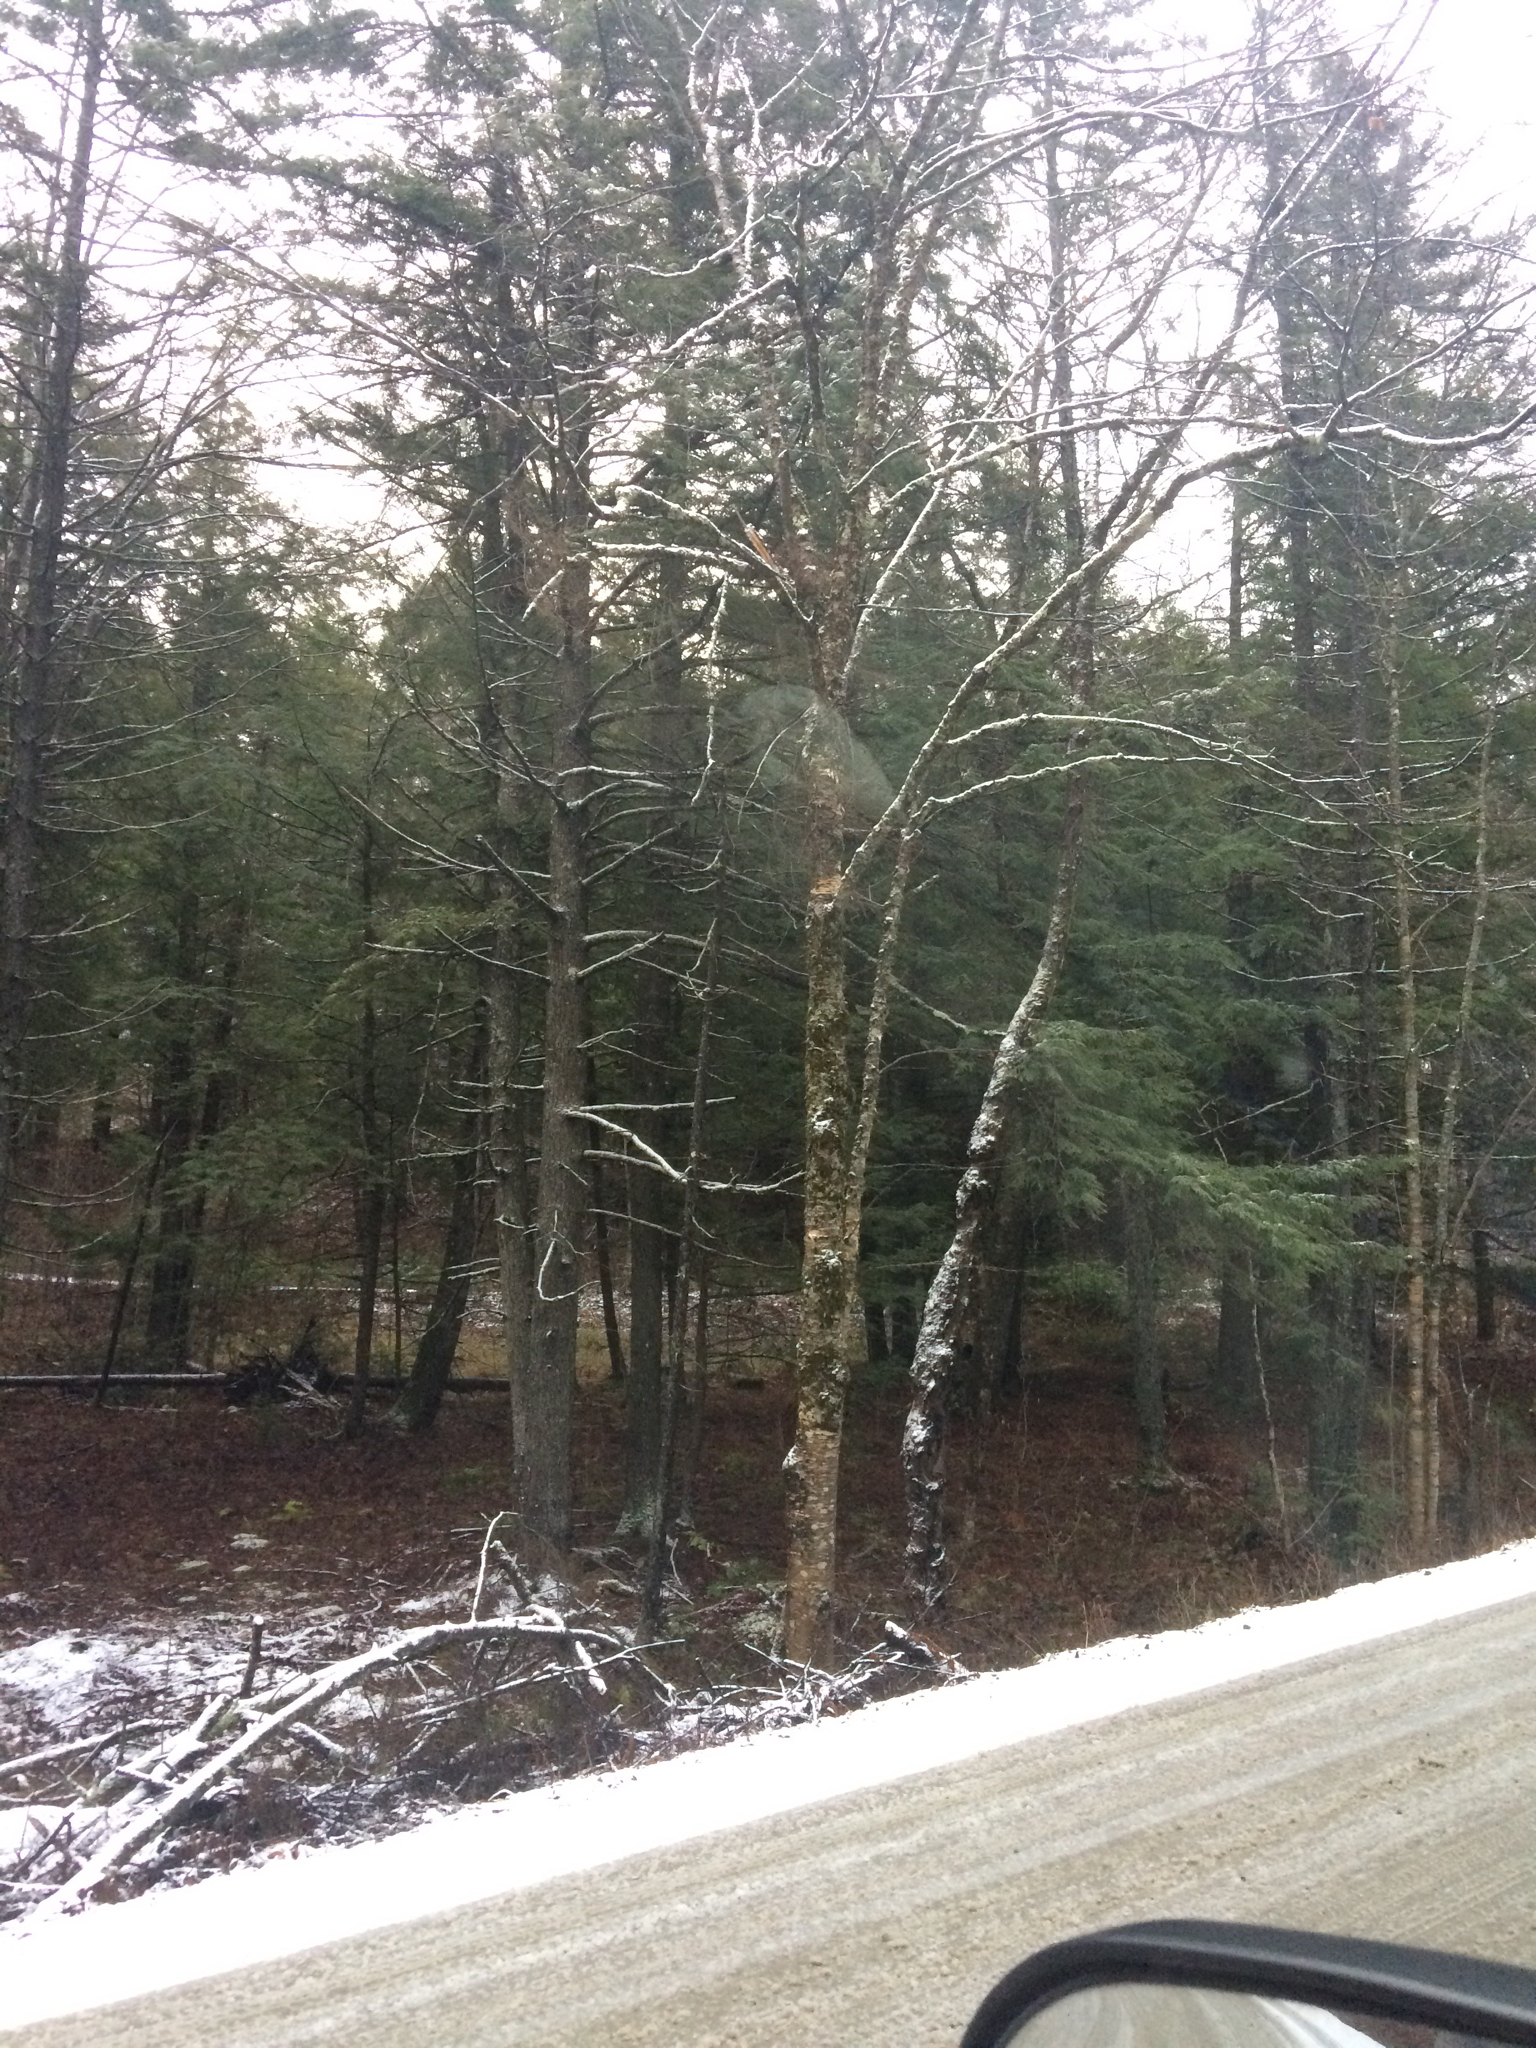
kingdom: Plantae
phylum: Tracheophyta
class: Pinopsida
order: Pinales
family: Pinaceae
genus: Tsuga
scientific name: Tsuga canadensis
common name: Eastern hemlock
